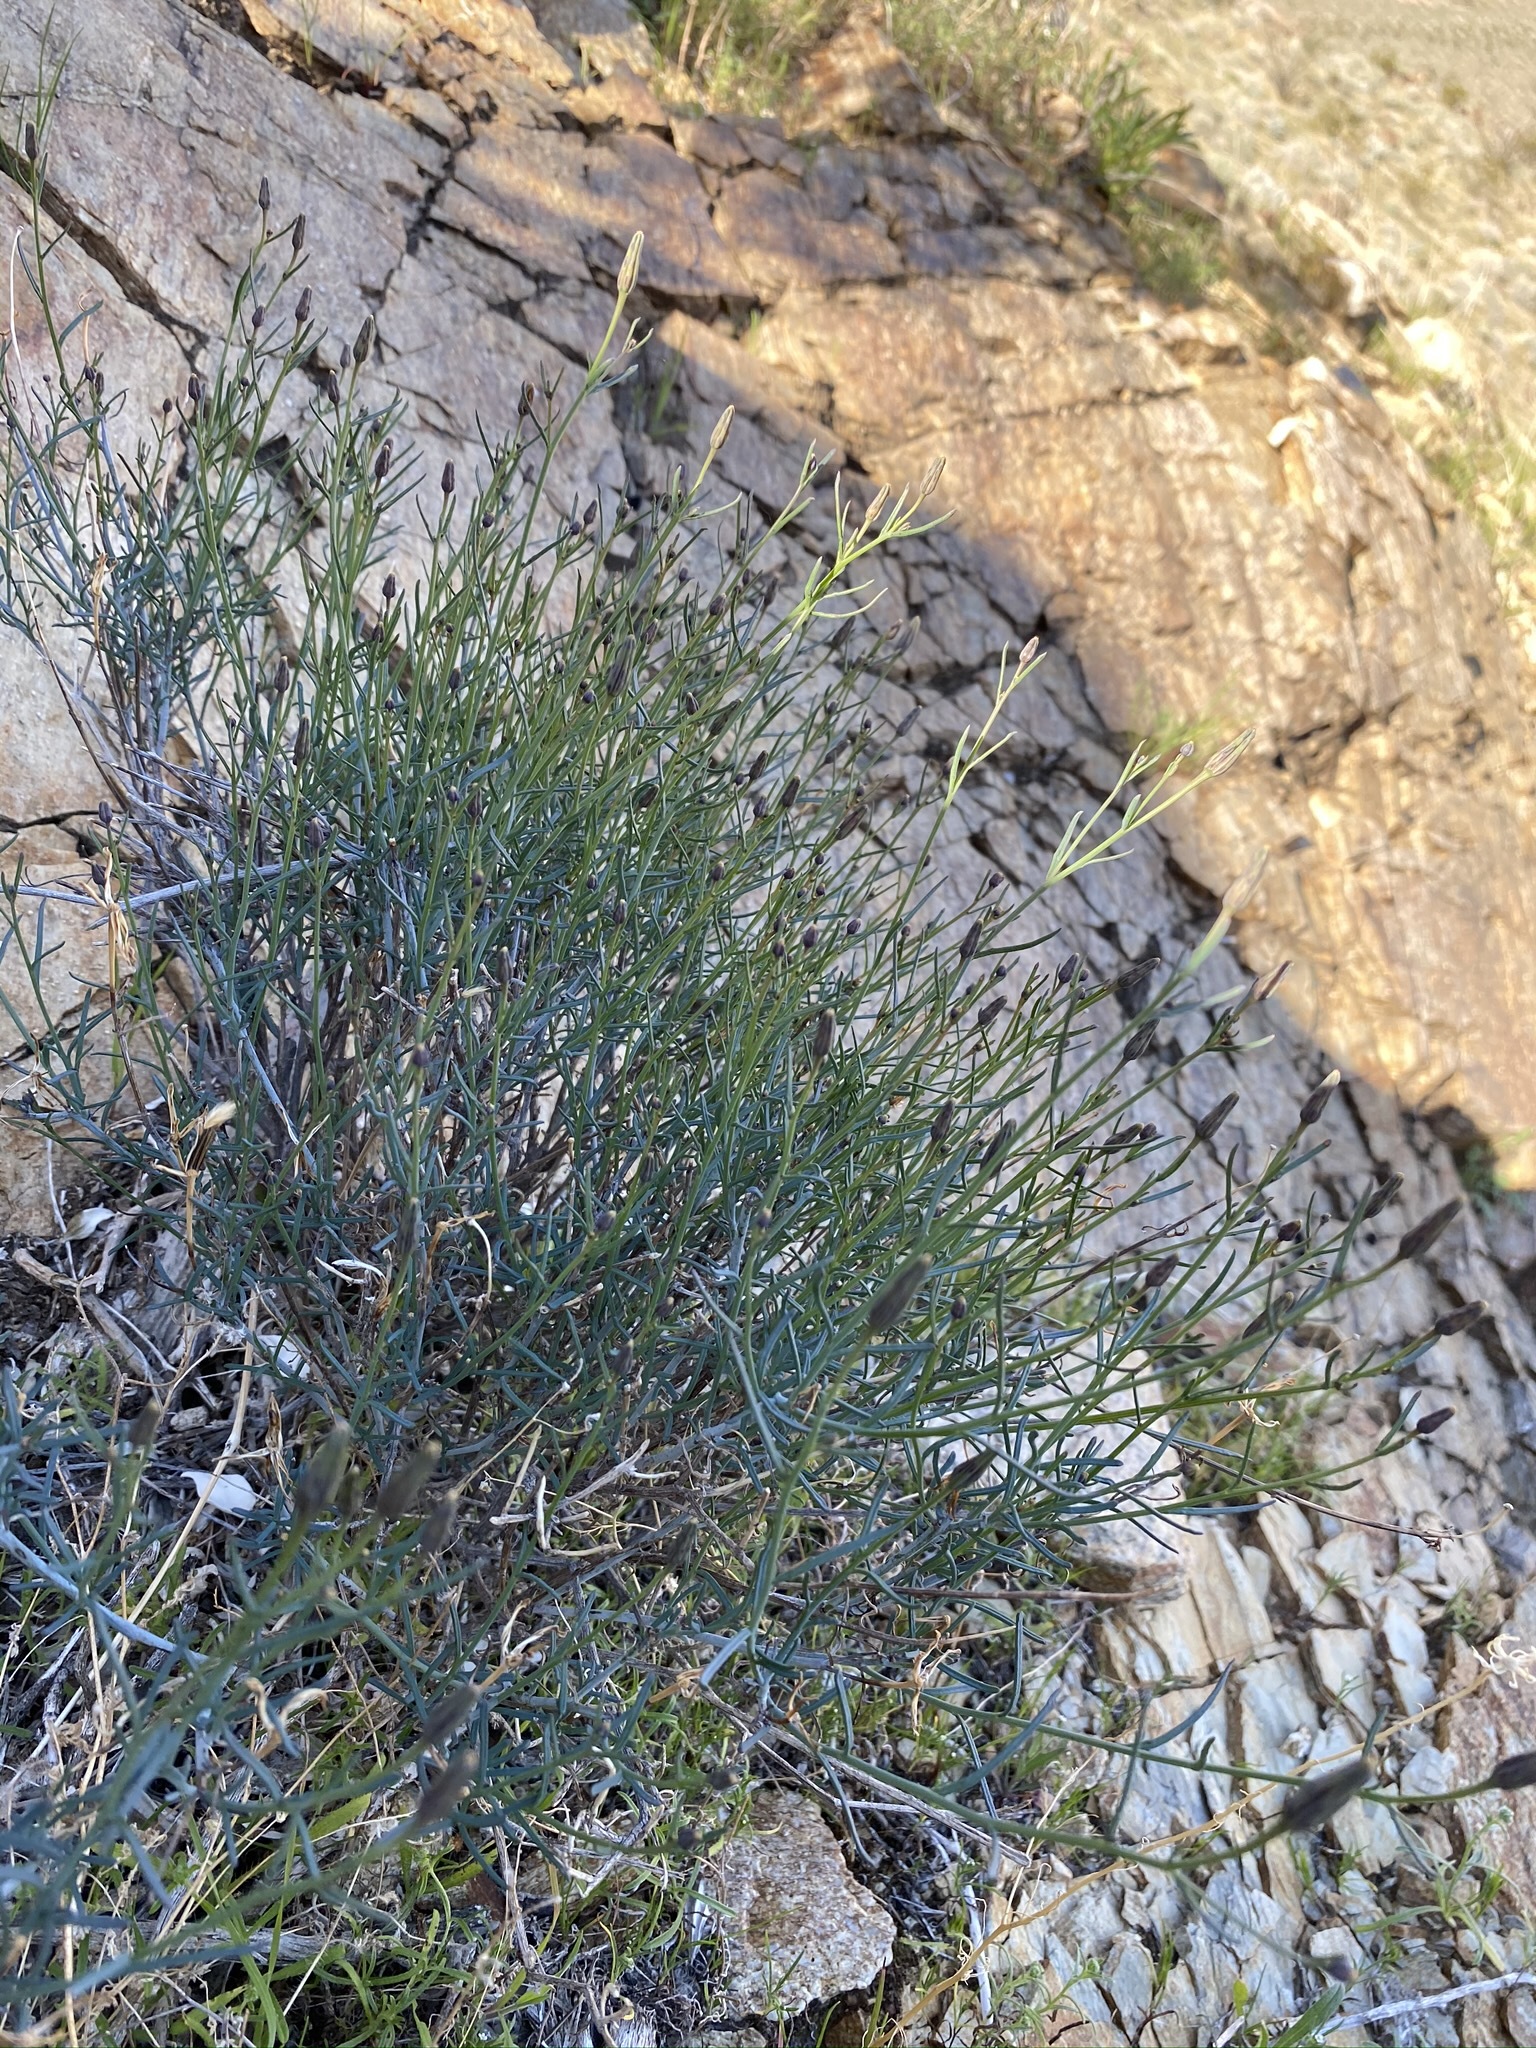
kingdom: Plantae
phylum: Tracheophyta
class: Magnoliopsida
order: Asterales
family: Asteraceae
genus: Porophyllum
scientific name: Porophyllum gracile
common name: Odora
